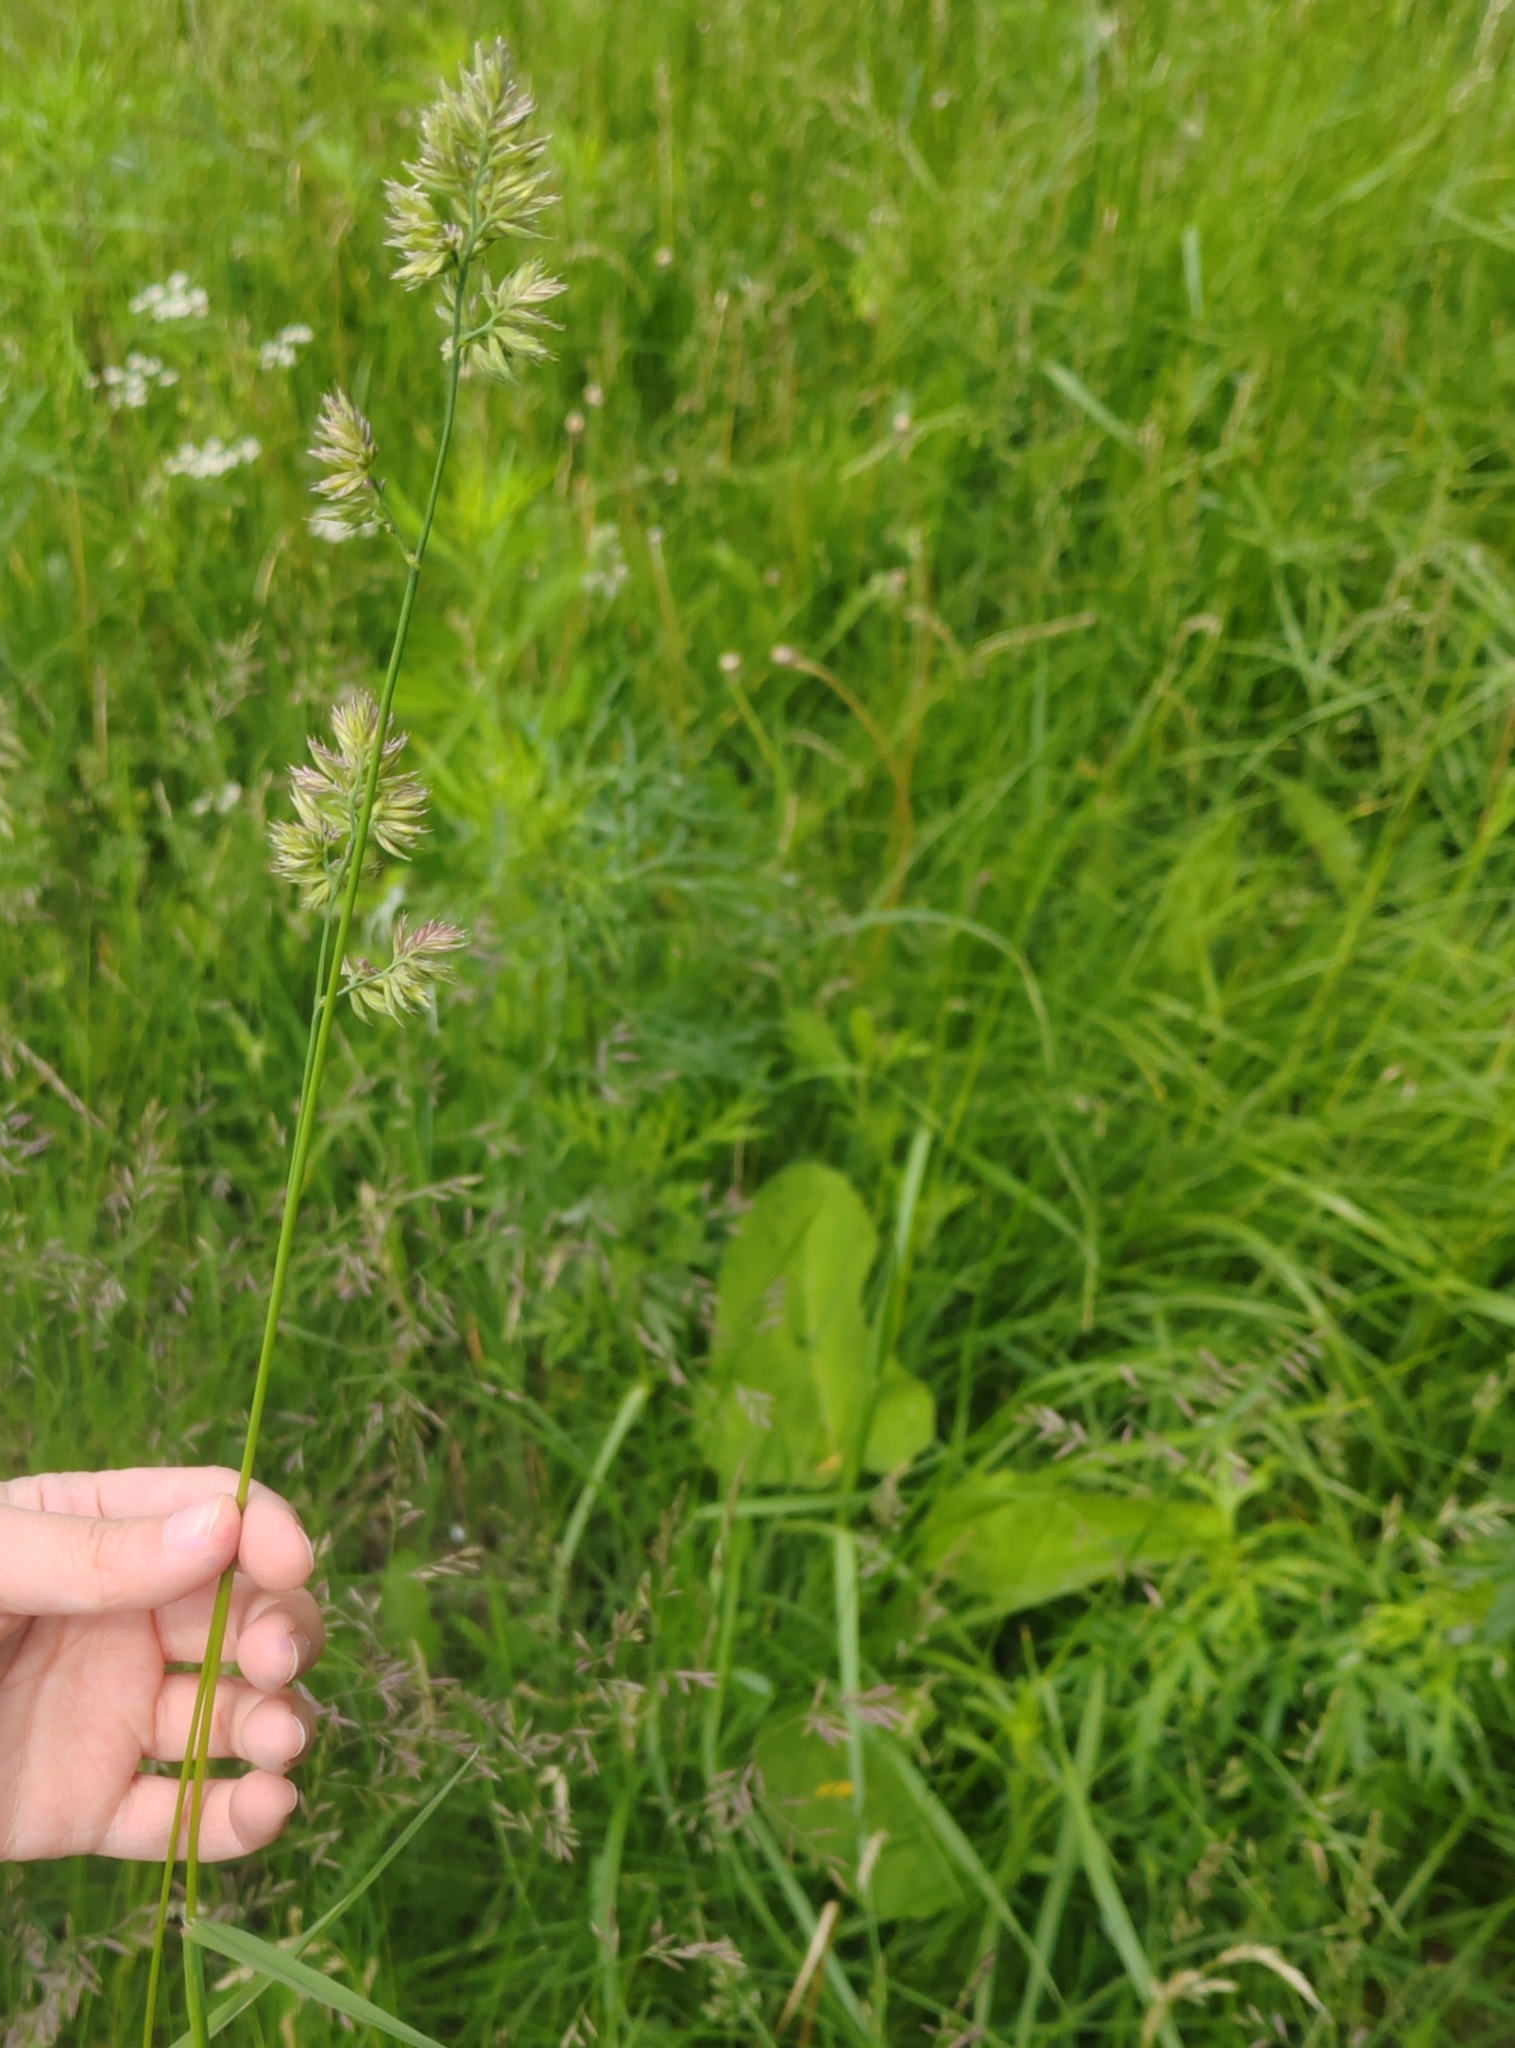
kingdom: Plantae
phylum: Tracheophyta
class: Liliopsida
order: Poales
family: Poaceae
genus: Dactylis
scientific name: Dactylis glomerata
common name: Orchardgrass
